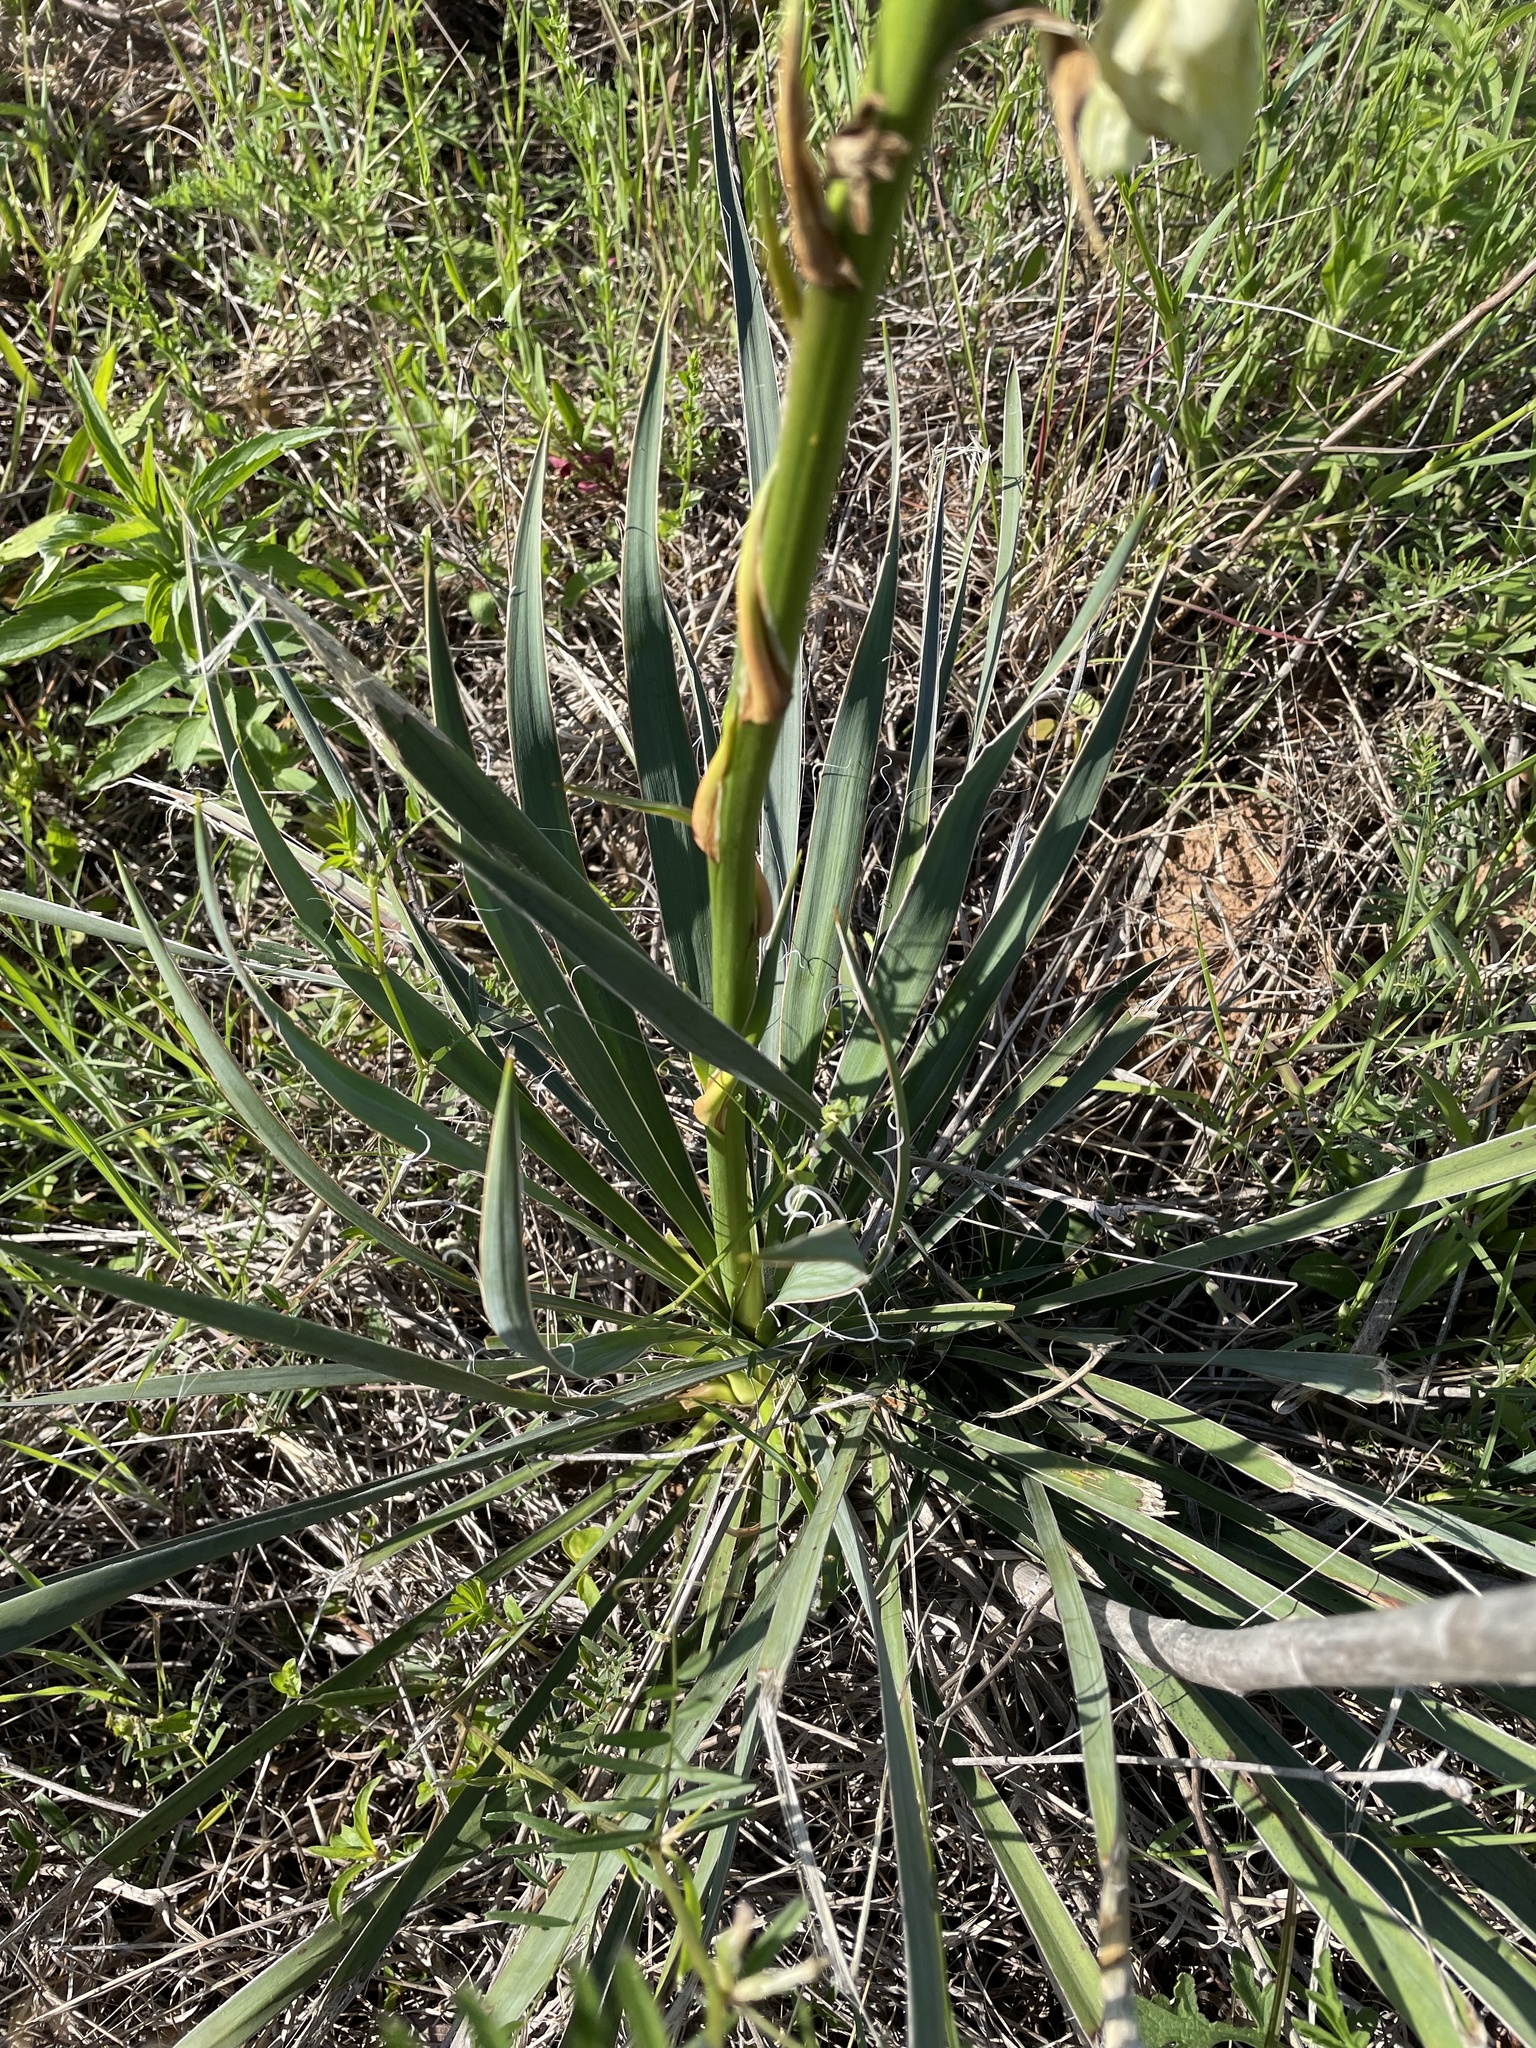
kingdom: Plantae
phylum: Tracheophyta
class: Liliopsida
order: Asparagales
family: Asparagaceae
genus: Yucca
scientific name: Yucca arkansana
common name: Arkansas yucca
